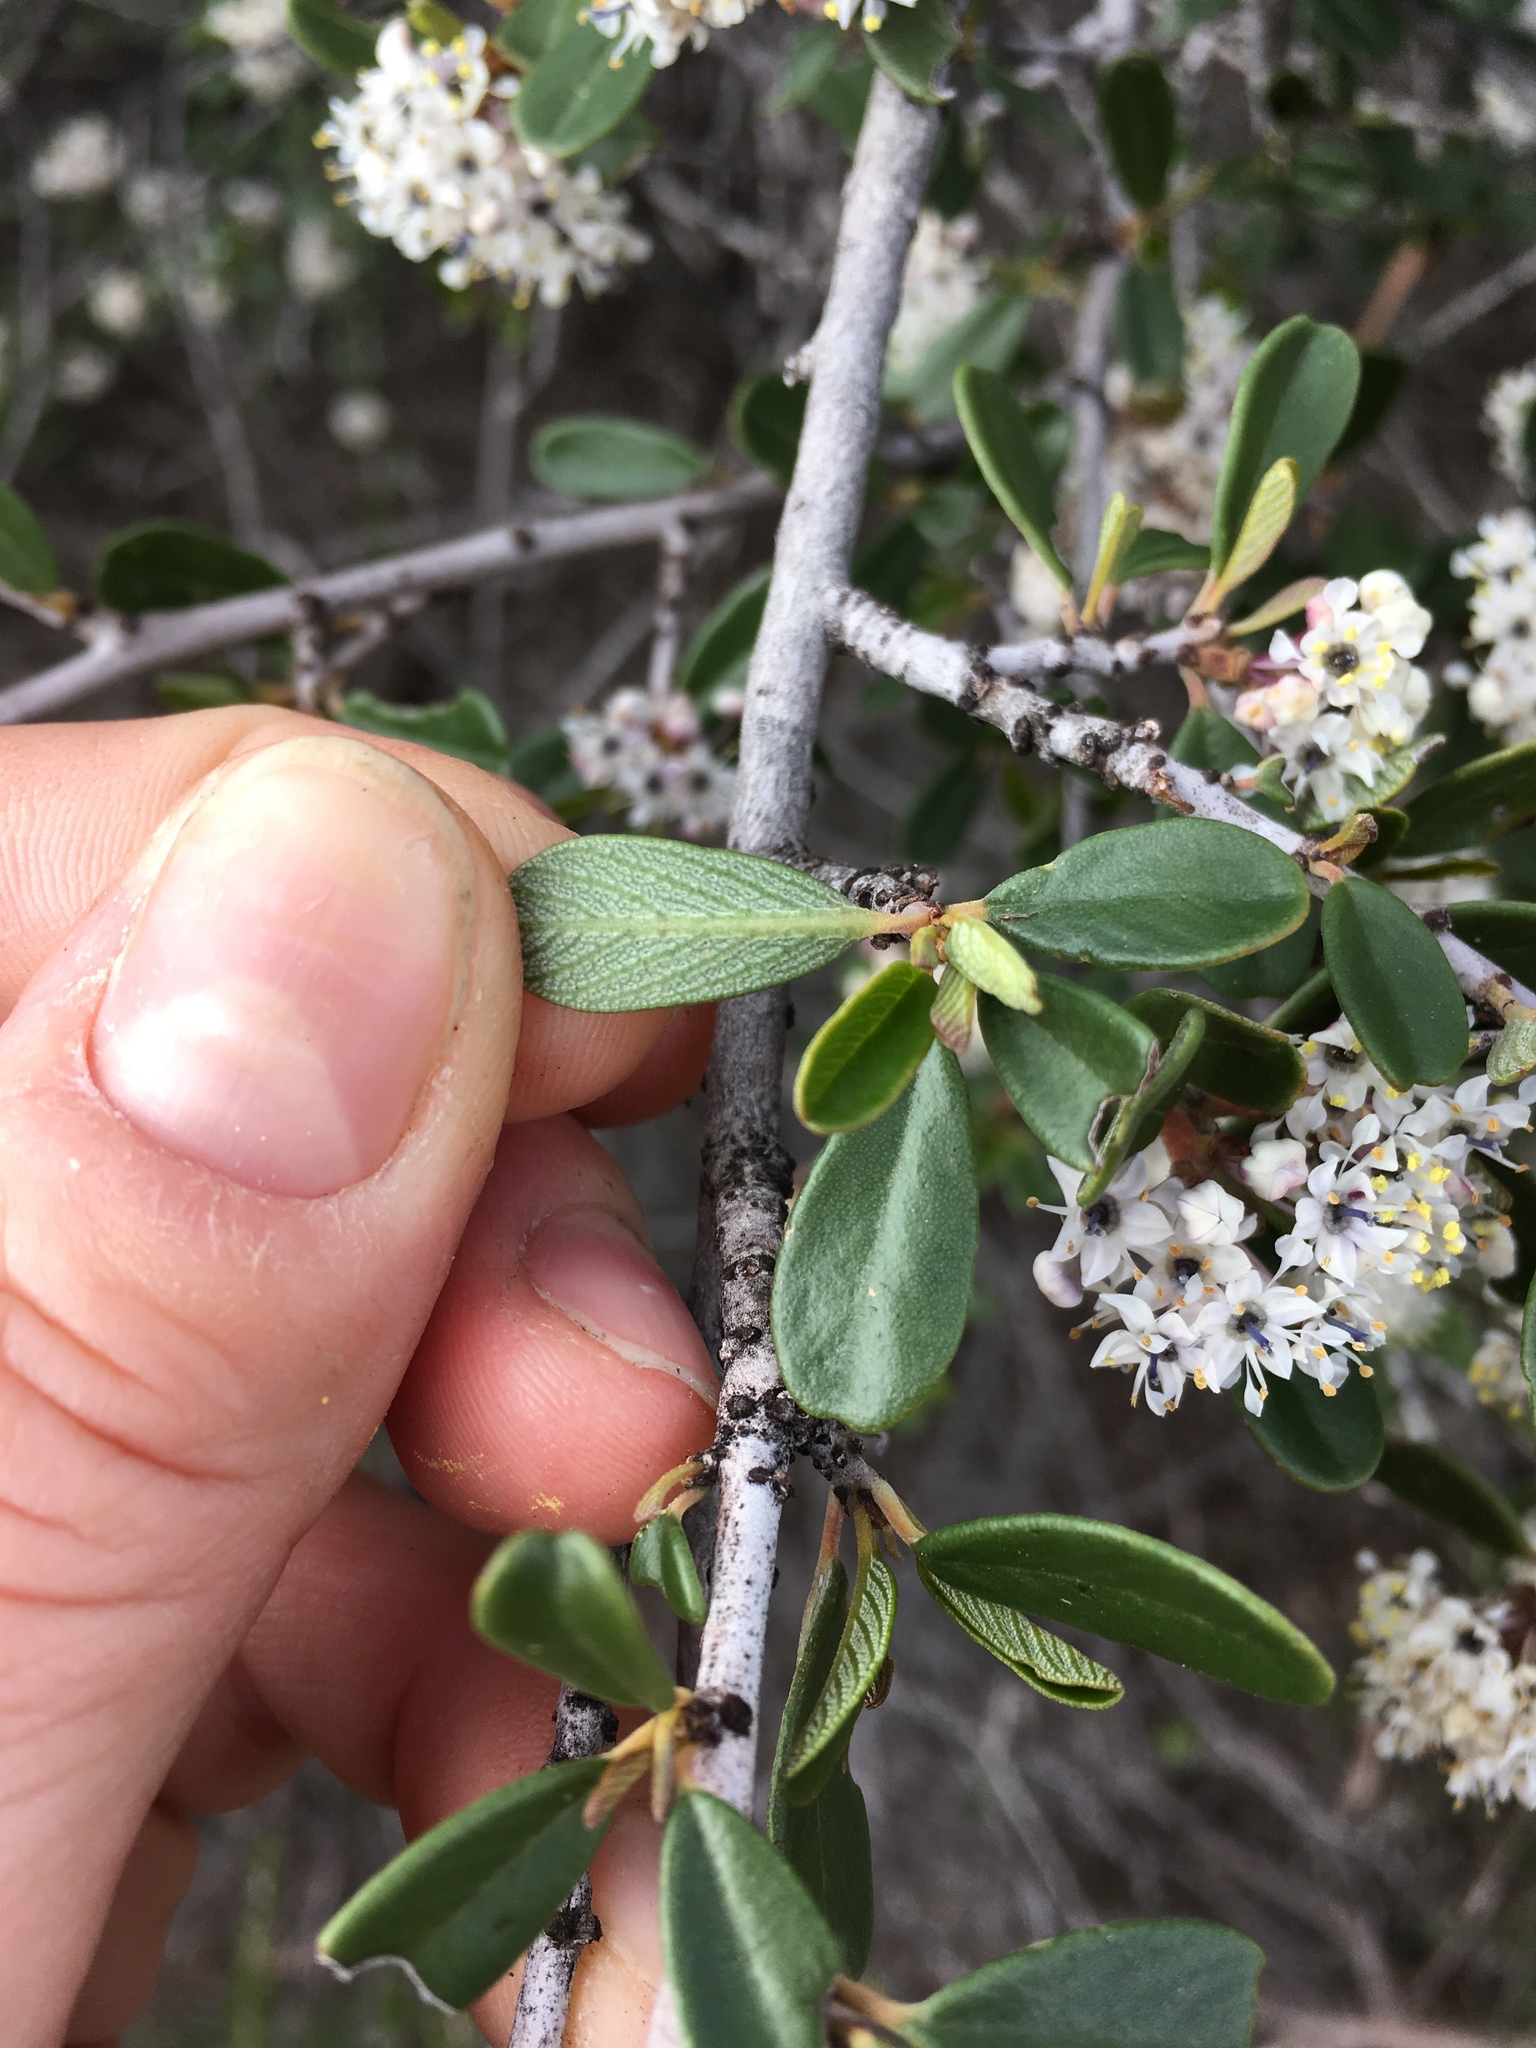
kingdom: Plantae
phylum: Tracheophyta
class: Magnoliopsida
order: Rosales
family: Rhamnaceae
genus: Ceanothus
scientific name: Ceanothus megacarpus
